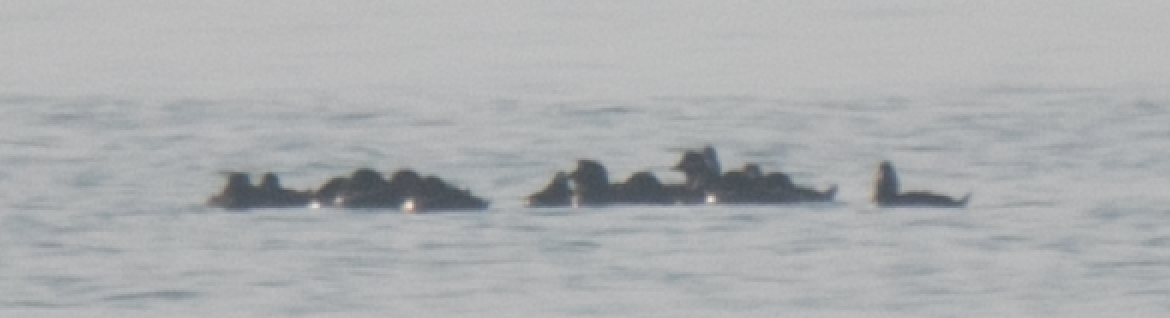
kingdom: Animalia
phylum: Chordata
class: Aves
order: Anseriformes
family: Anatidae
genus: Melanitta
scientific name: Melanitta fusca
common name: Velvet scoter
